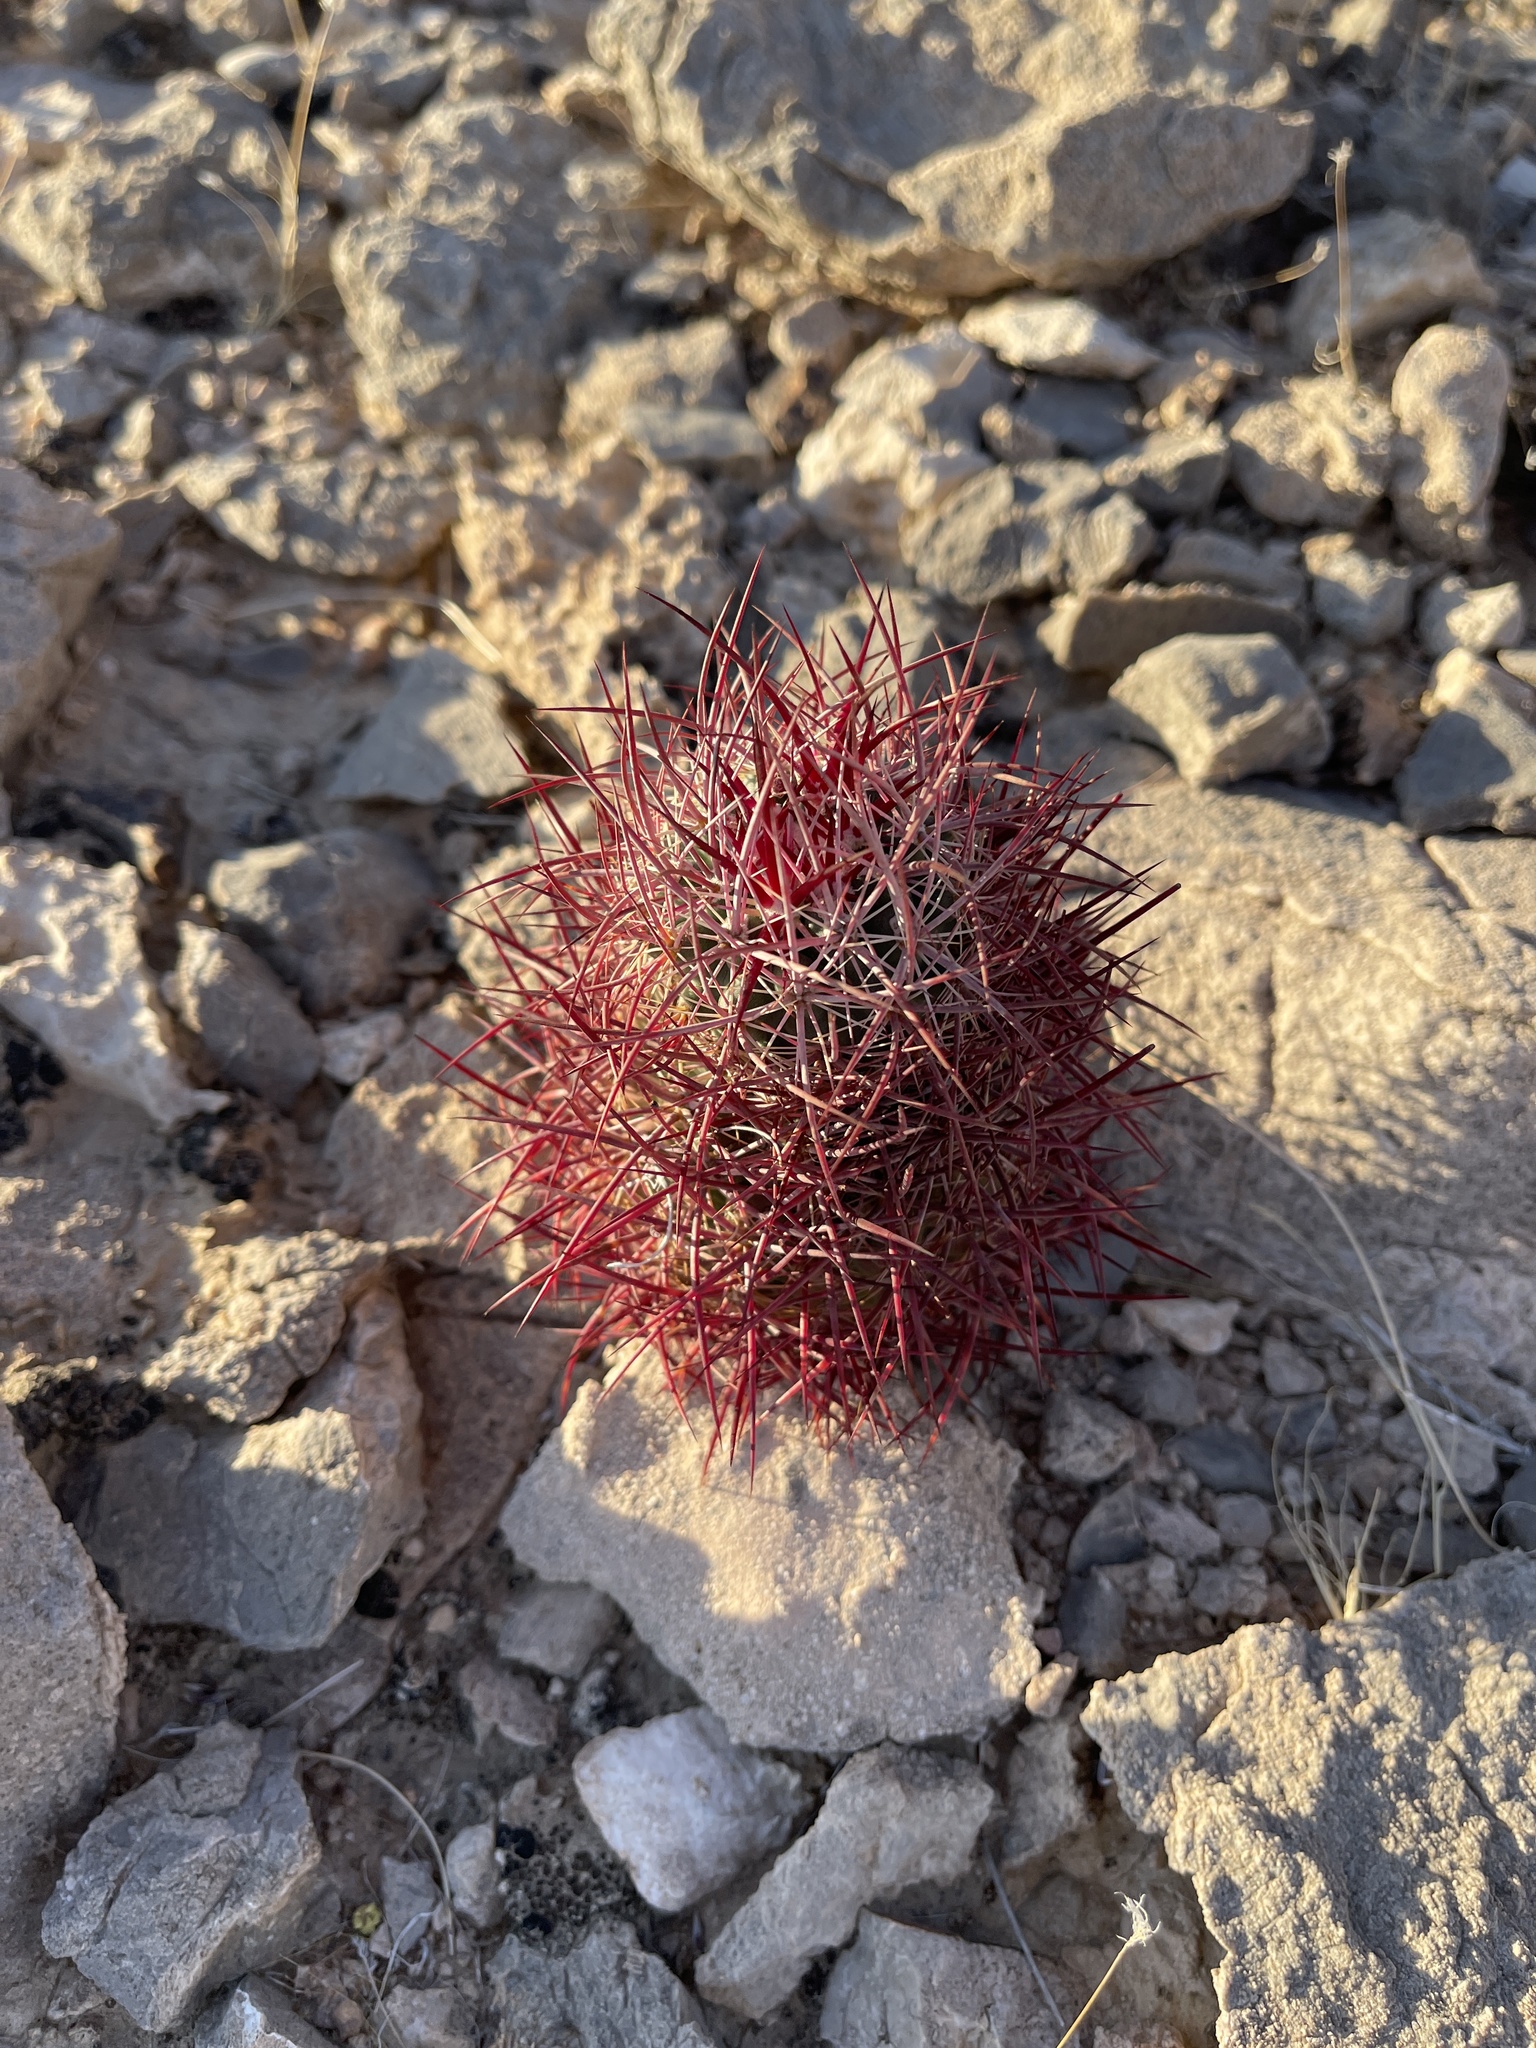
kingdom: Plantae
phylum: Tracheophyta
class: Magnoliopsida
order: Caryophyllales
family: Cactaceae
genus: Sclerocactus
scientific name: Sclerocactus johnsonii
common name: Eight-spine fishhook cactus
